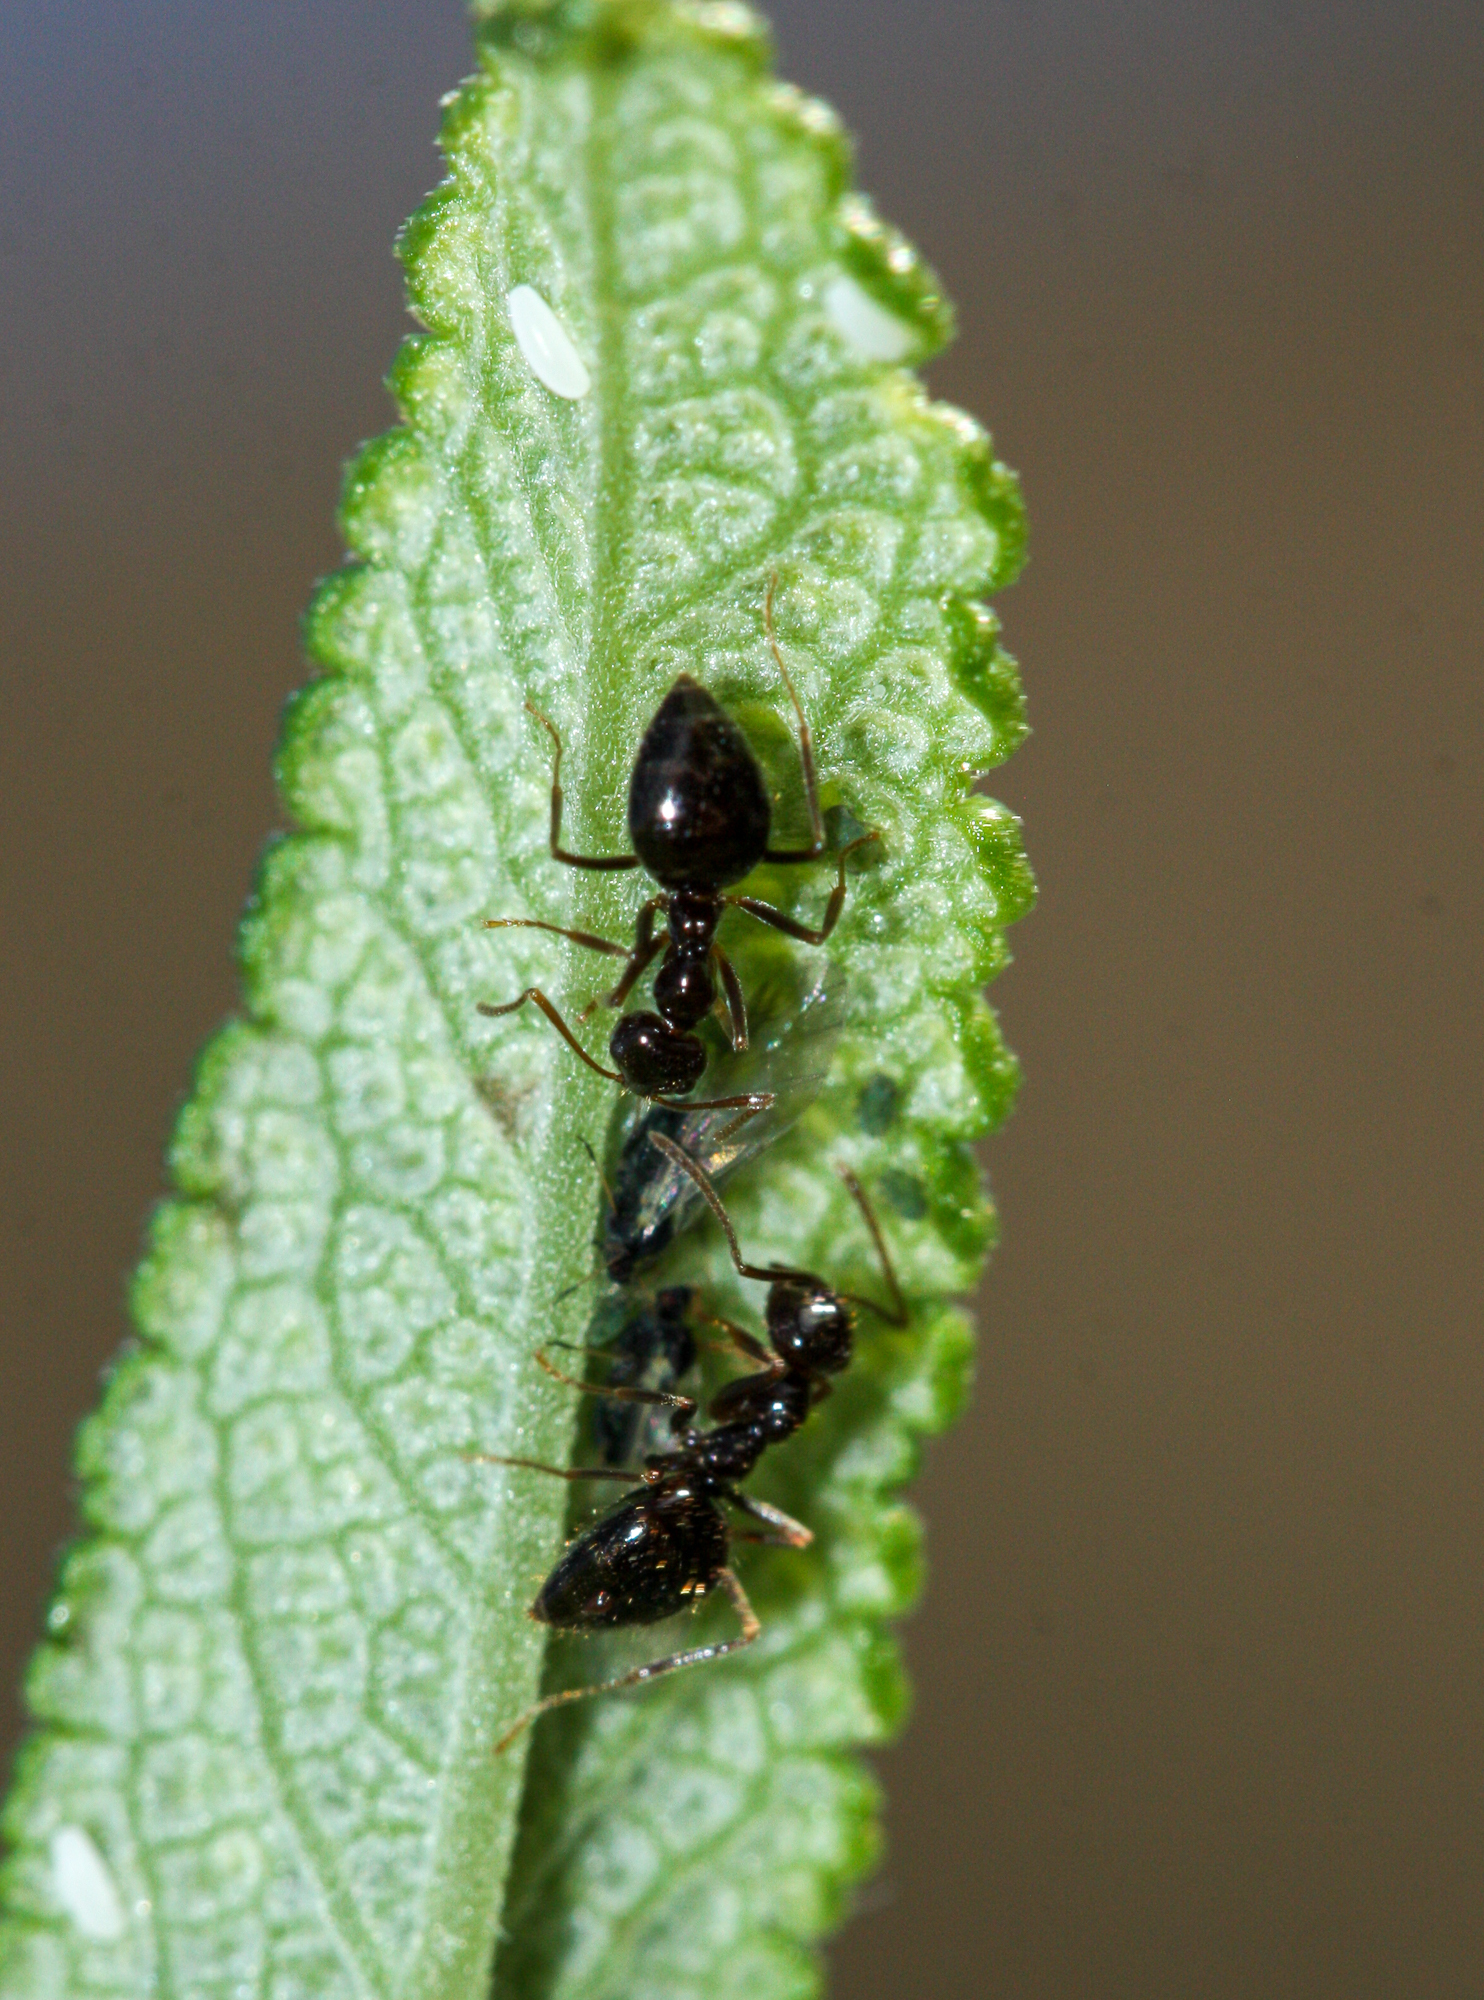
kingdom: Animalia
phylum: Arthropoda
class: Insecta
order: Hymenoptera
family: Formicidae
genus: Prenolepis
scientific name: Prenolepis imparis
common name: Small honey ant
